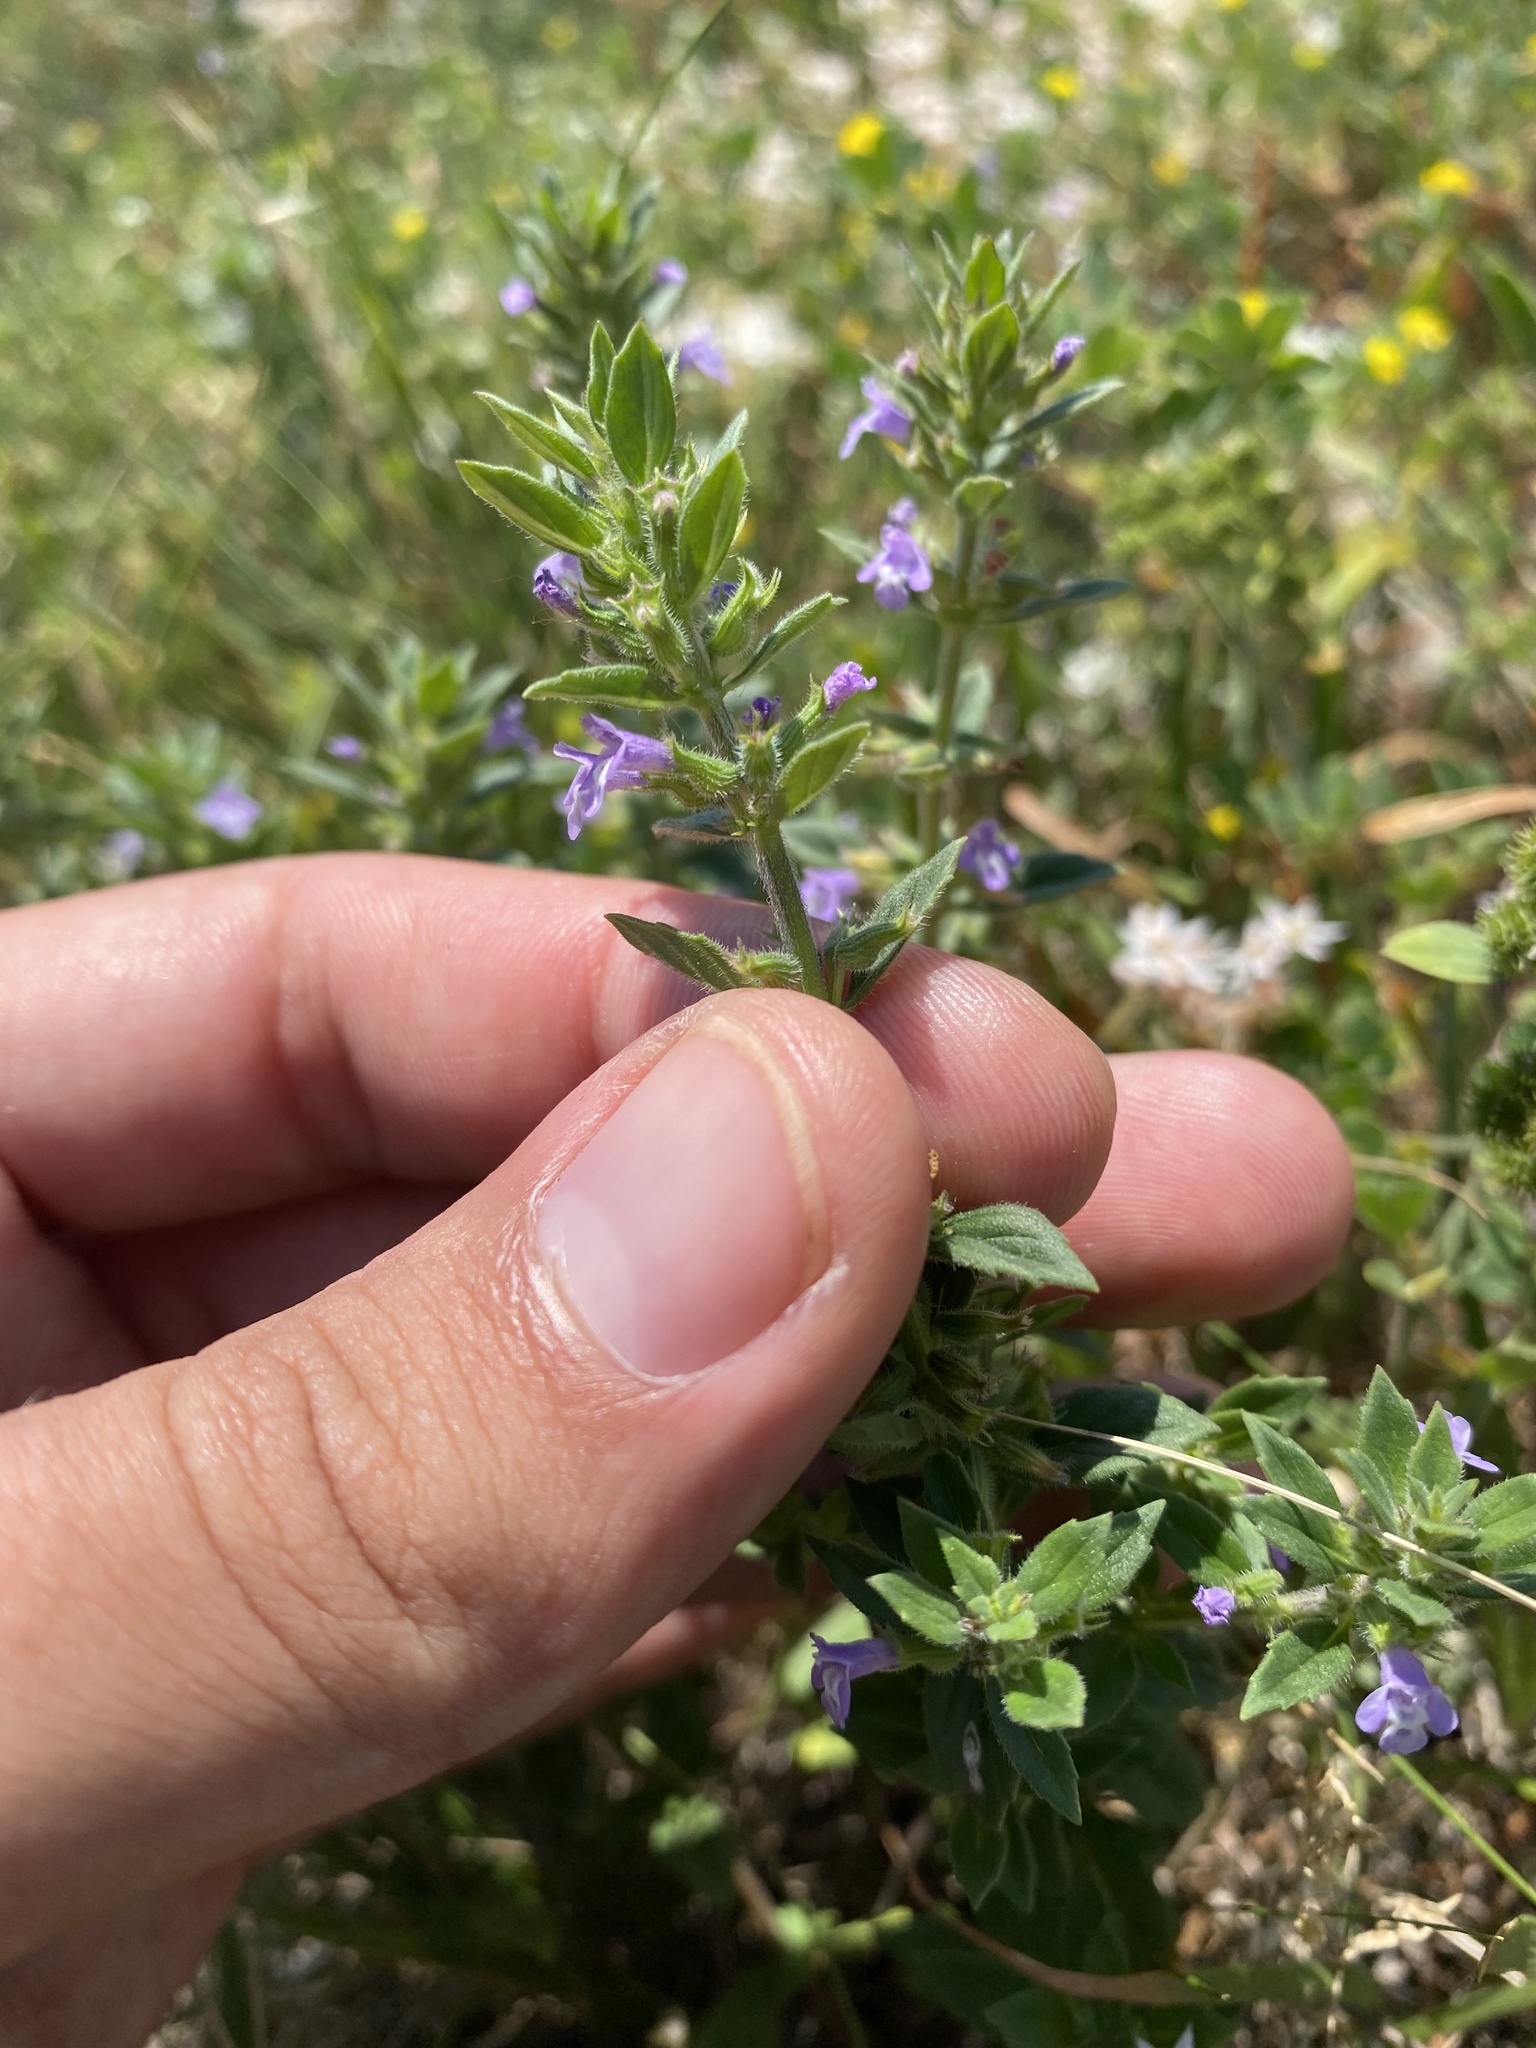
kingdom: Plantae
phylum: Tracheophyta
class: Magnoliopsida
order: Lamiales
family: Lamiaceae
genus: Clinopodium
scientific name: Clinopodium acinos
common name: Basil thyme
